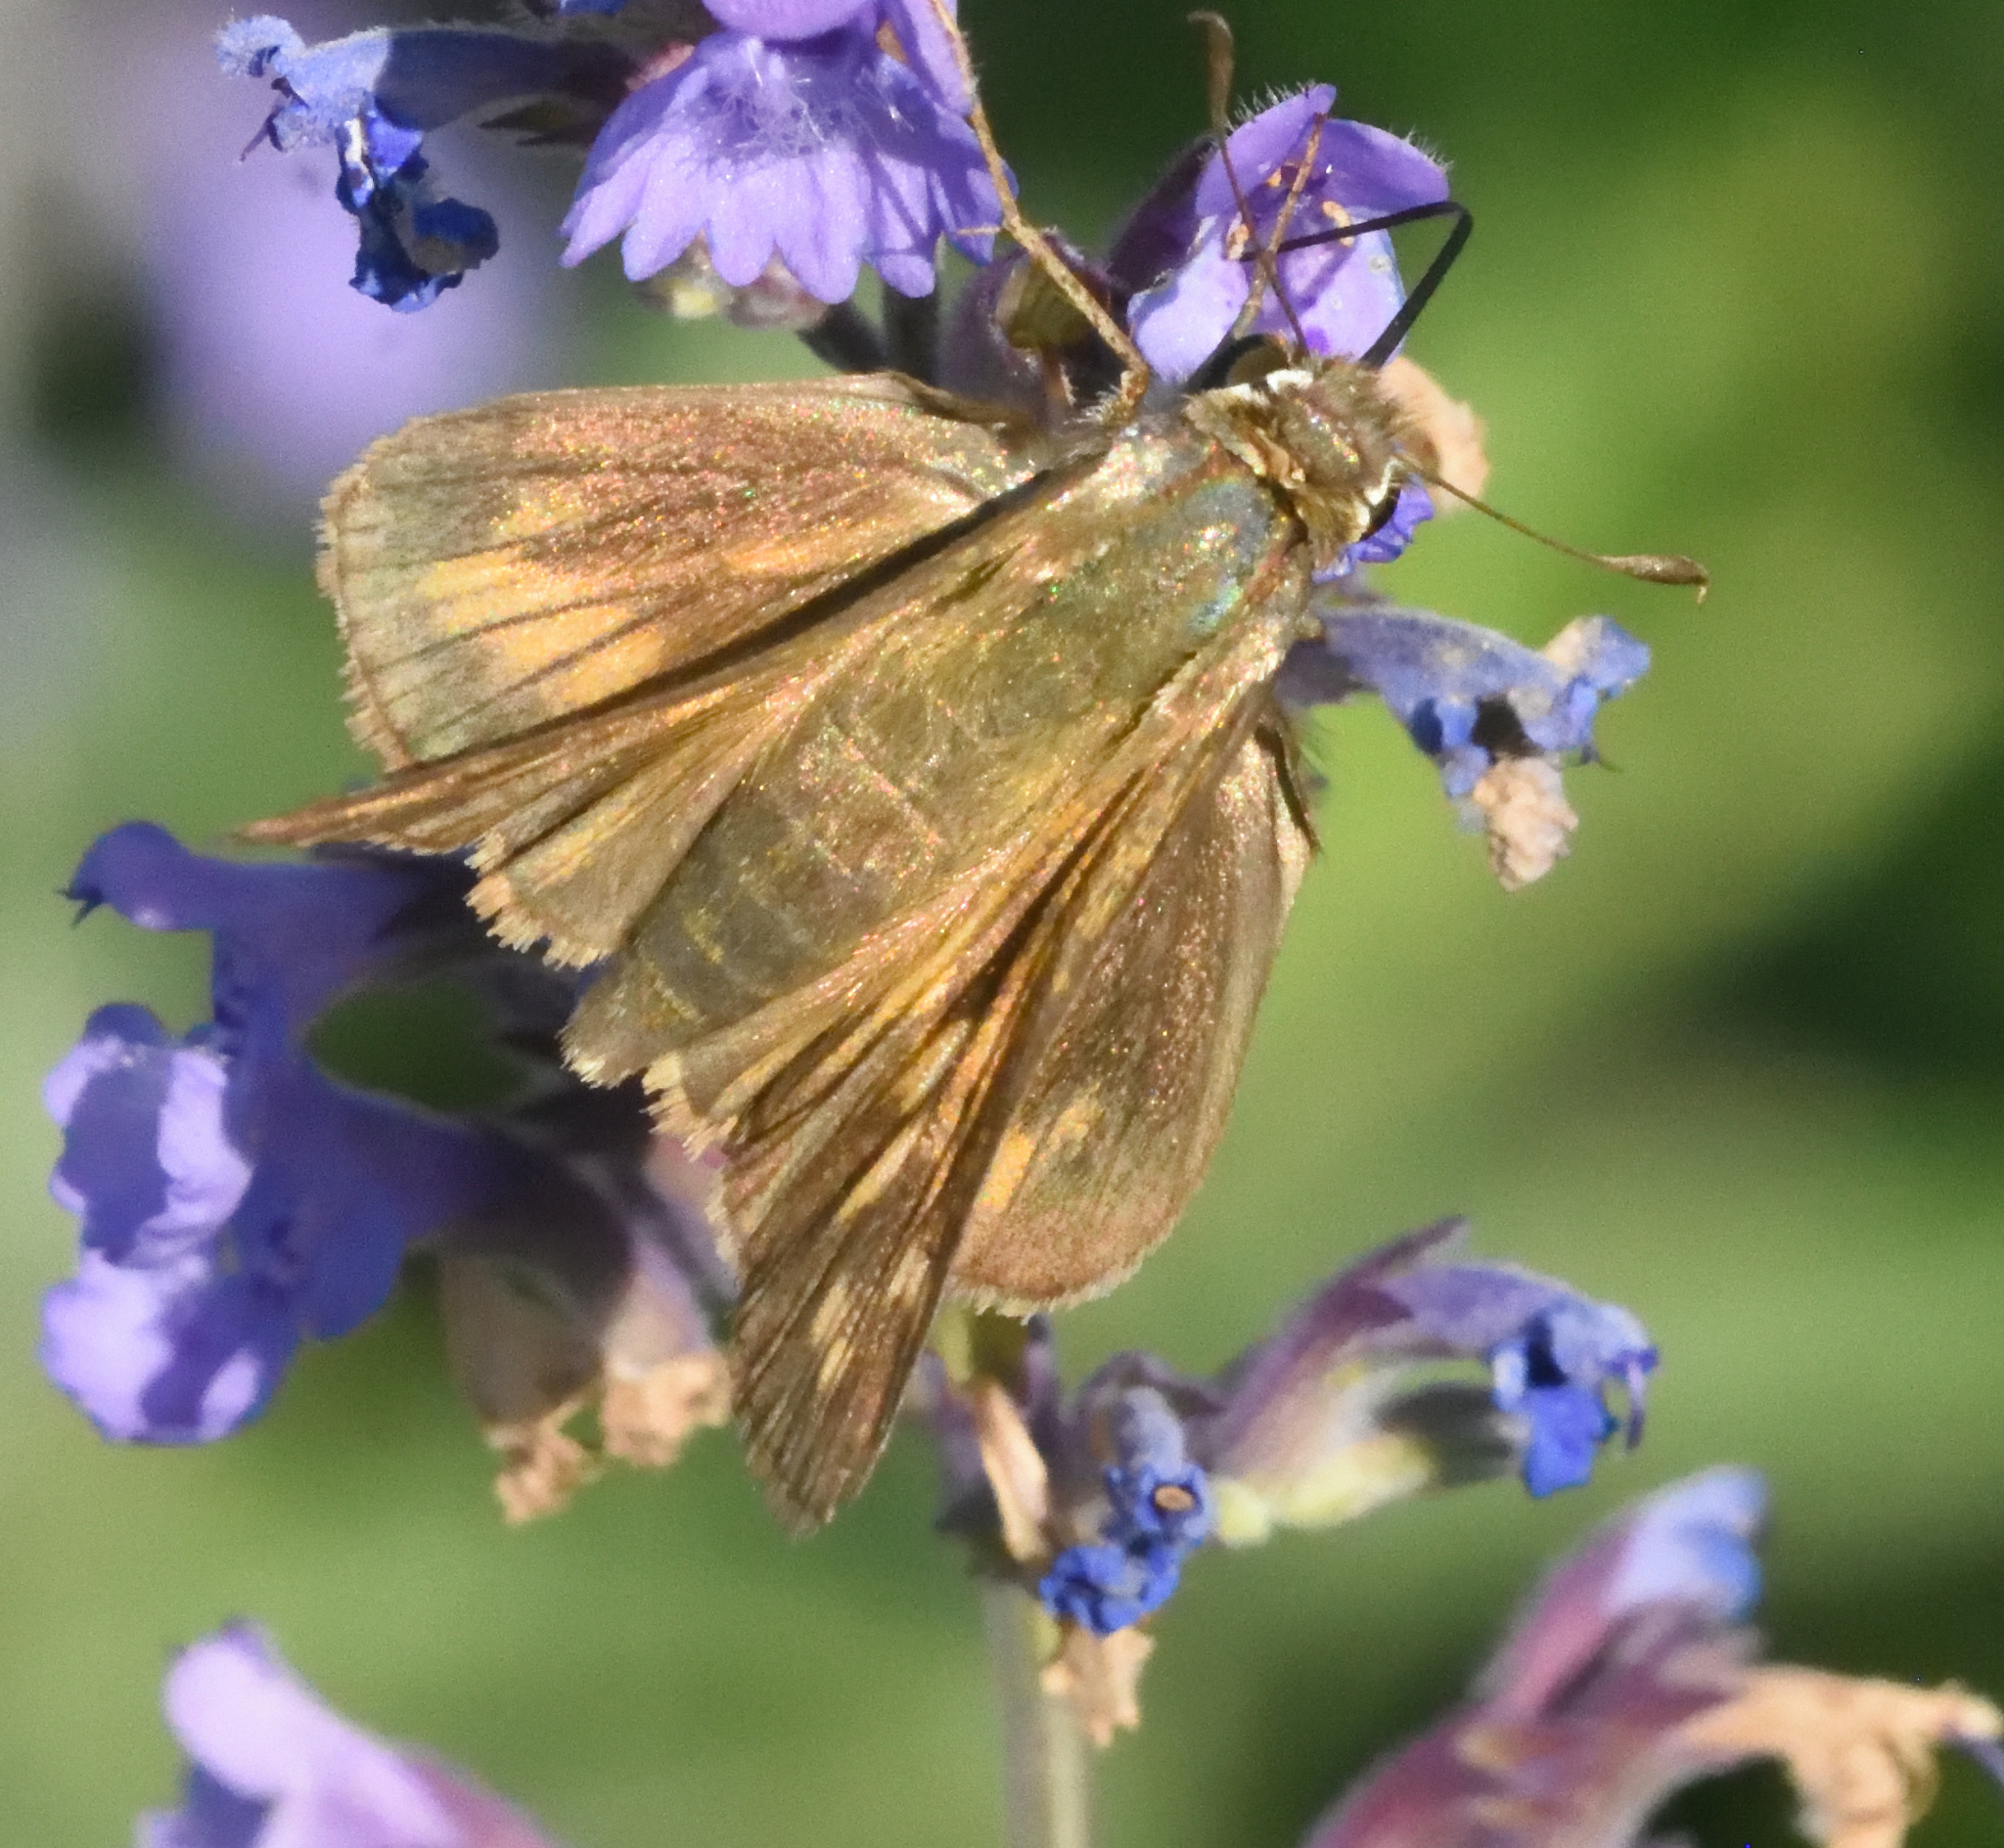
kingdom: Animalia
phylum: Arthropoda
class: Insecta
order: Lepidoptera
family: Hesperiidae
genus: Atalopedes
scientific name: Atalopedes
